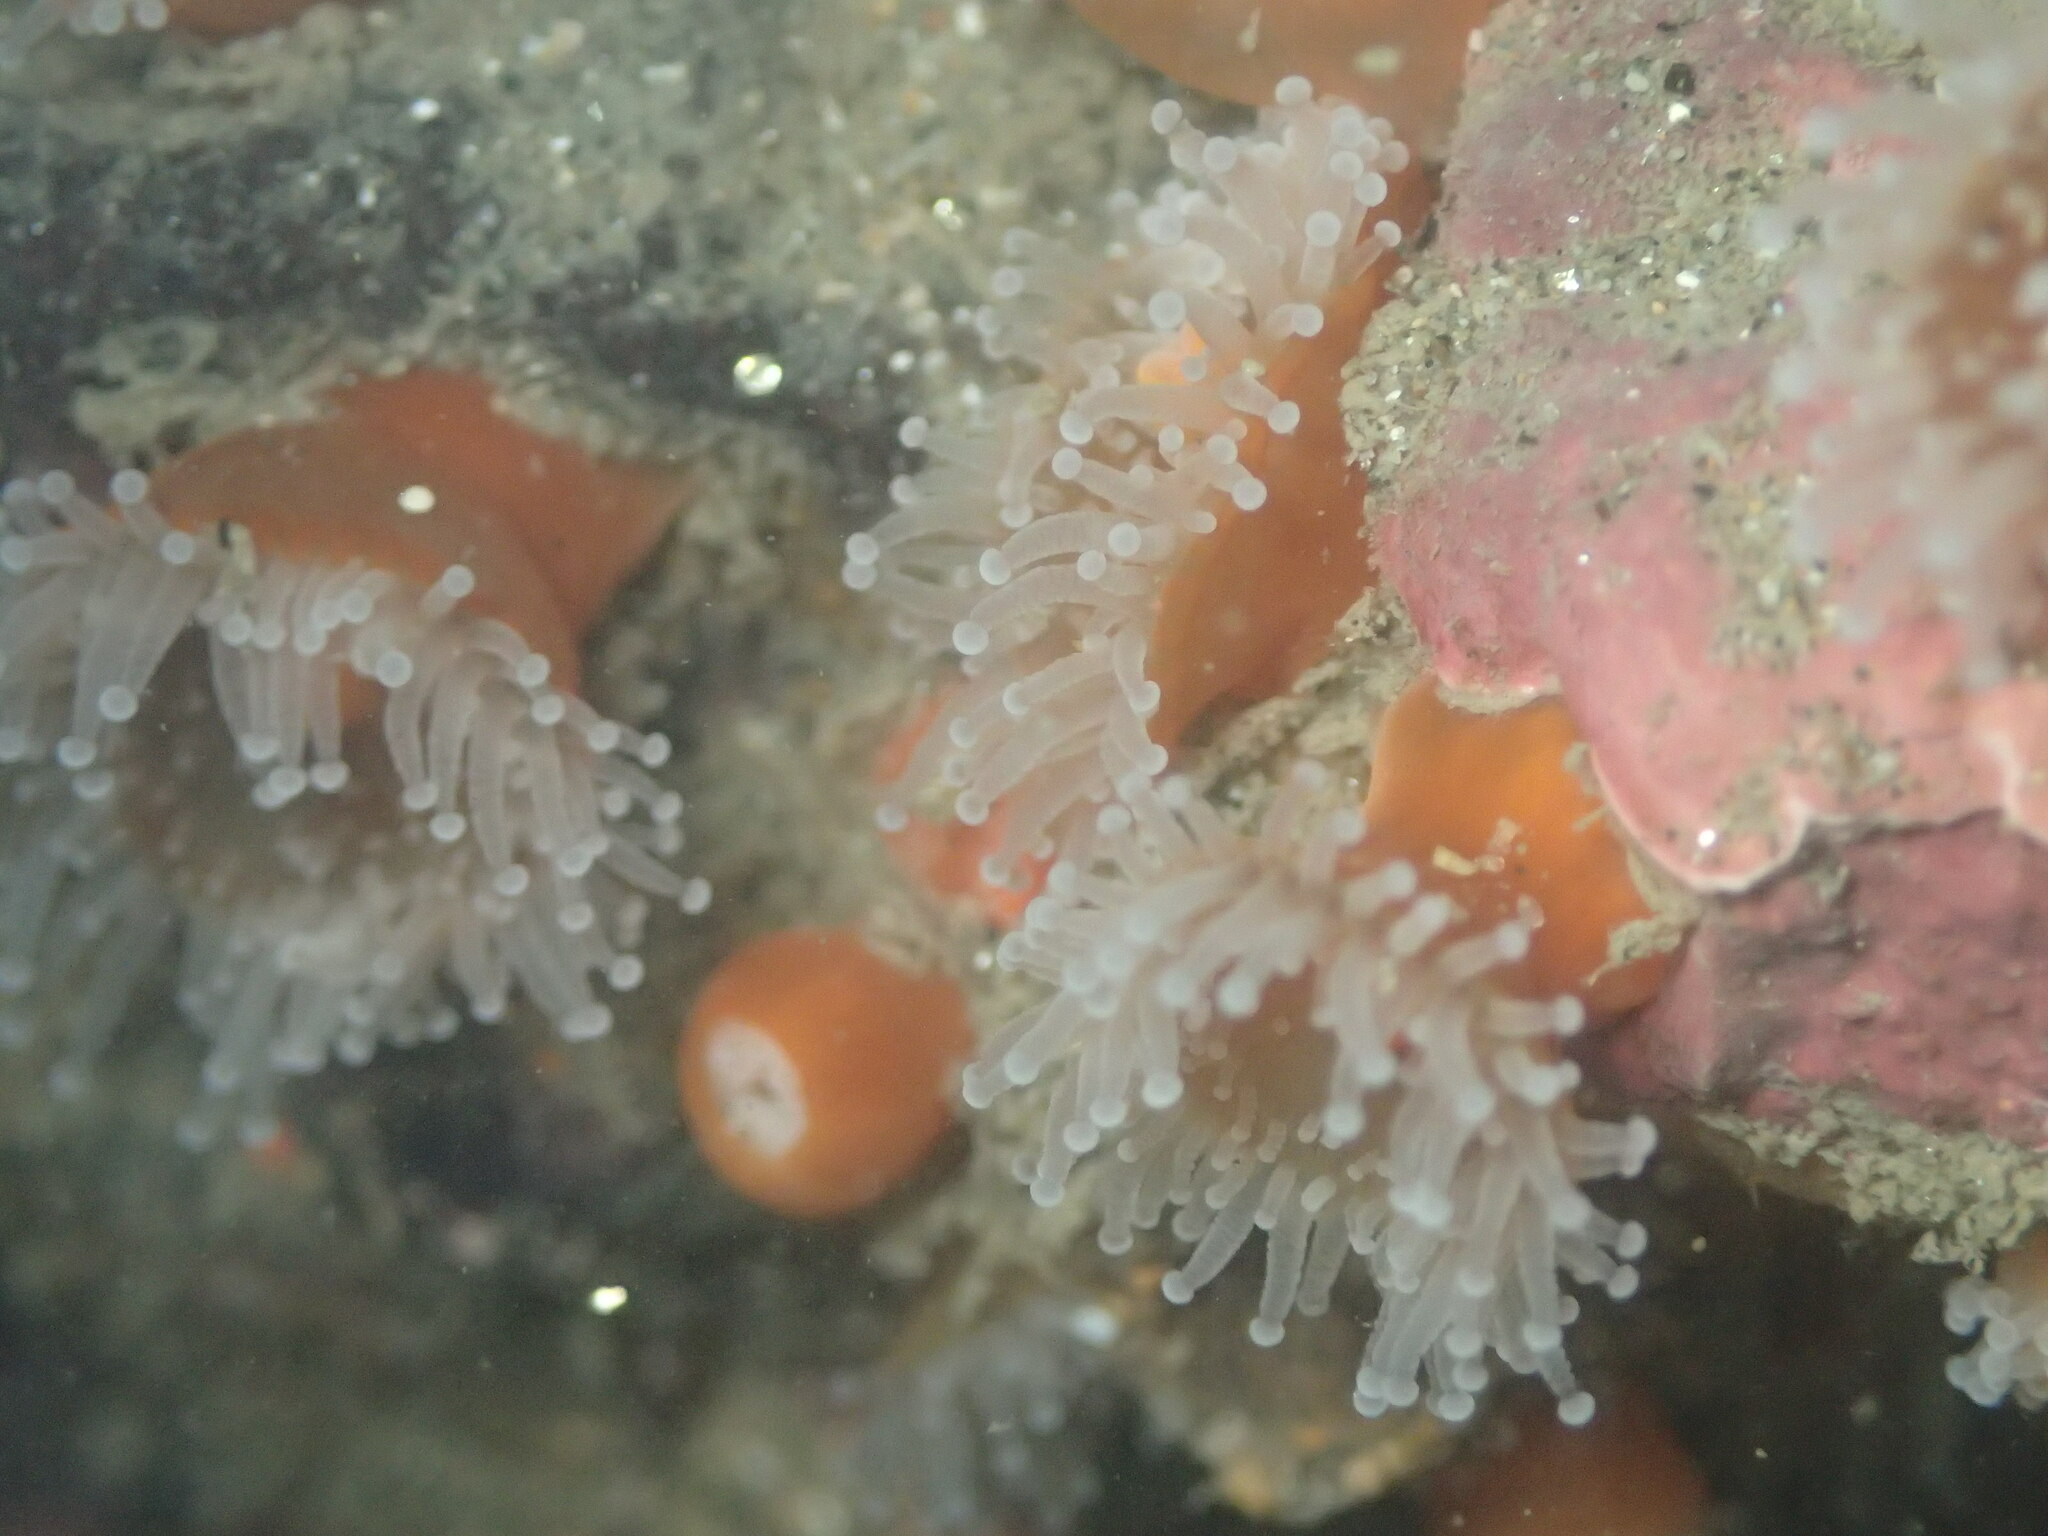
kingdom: Animalia
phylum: Cnidaria
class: Anthozoa
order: Corallimorpharia
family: Corallimorphidae
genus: Corynactis
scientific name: Corynactis californica
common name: Strawberry corallimorpharian
